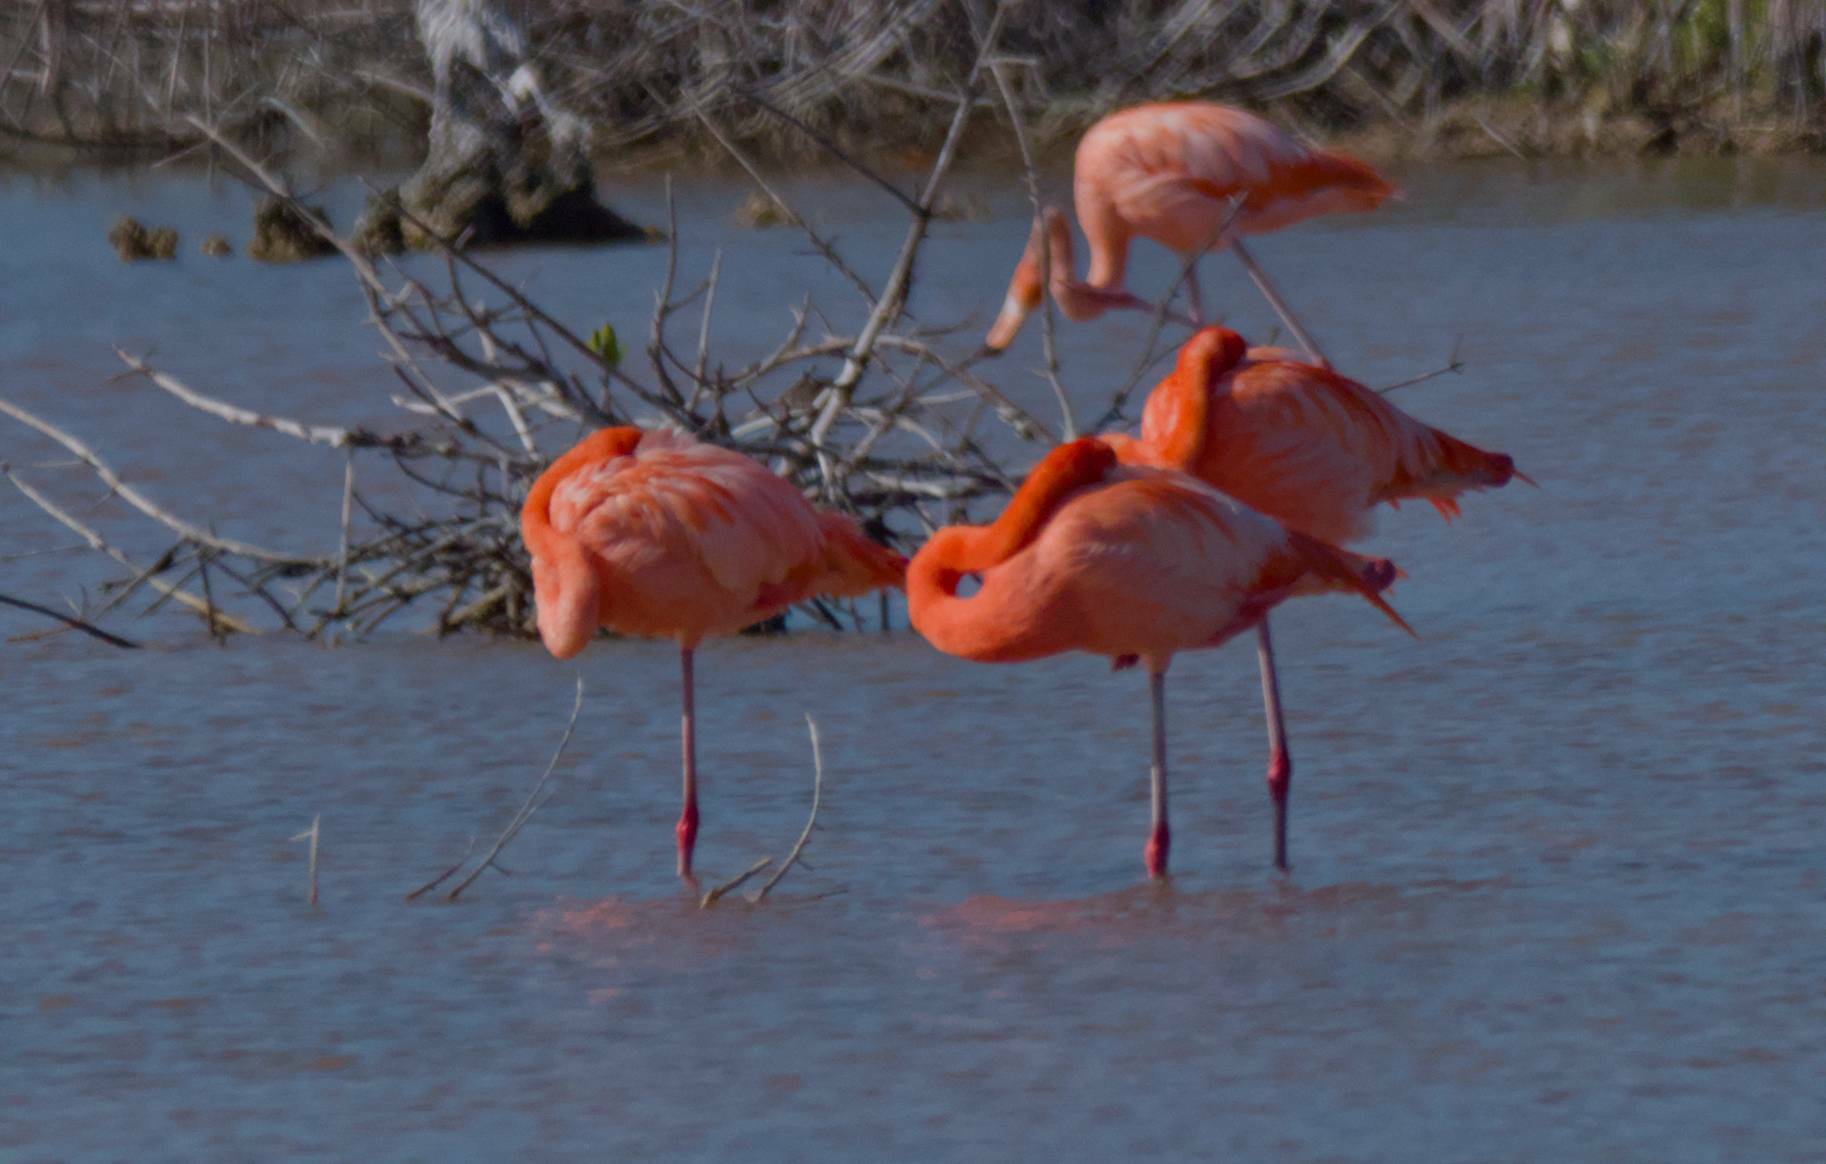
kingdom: Animalia
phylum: Chordata
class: Aves
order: Phoenicopteriformes
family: Phoenicopteridae
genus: Phoenicopterus
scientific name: Phoenicopterus ruber
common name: American flamingo
